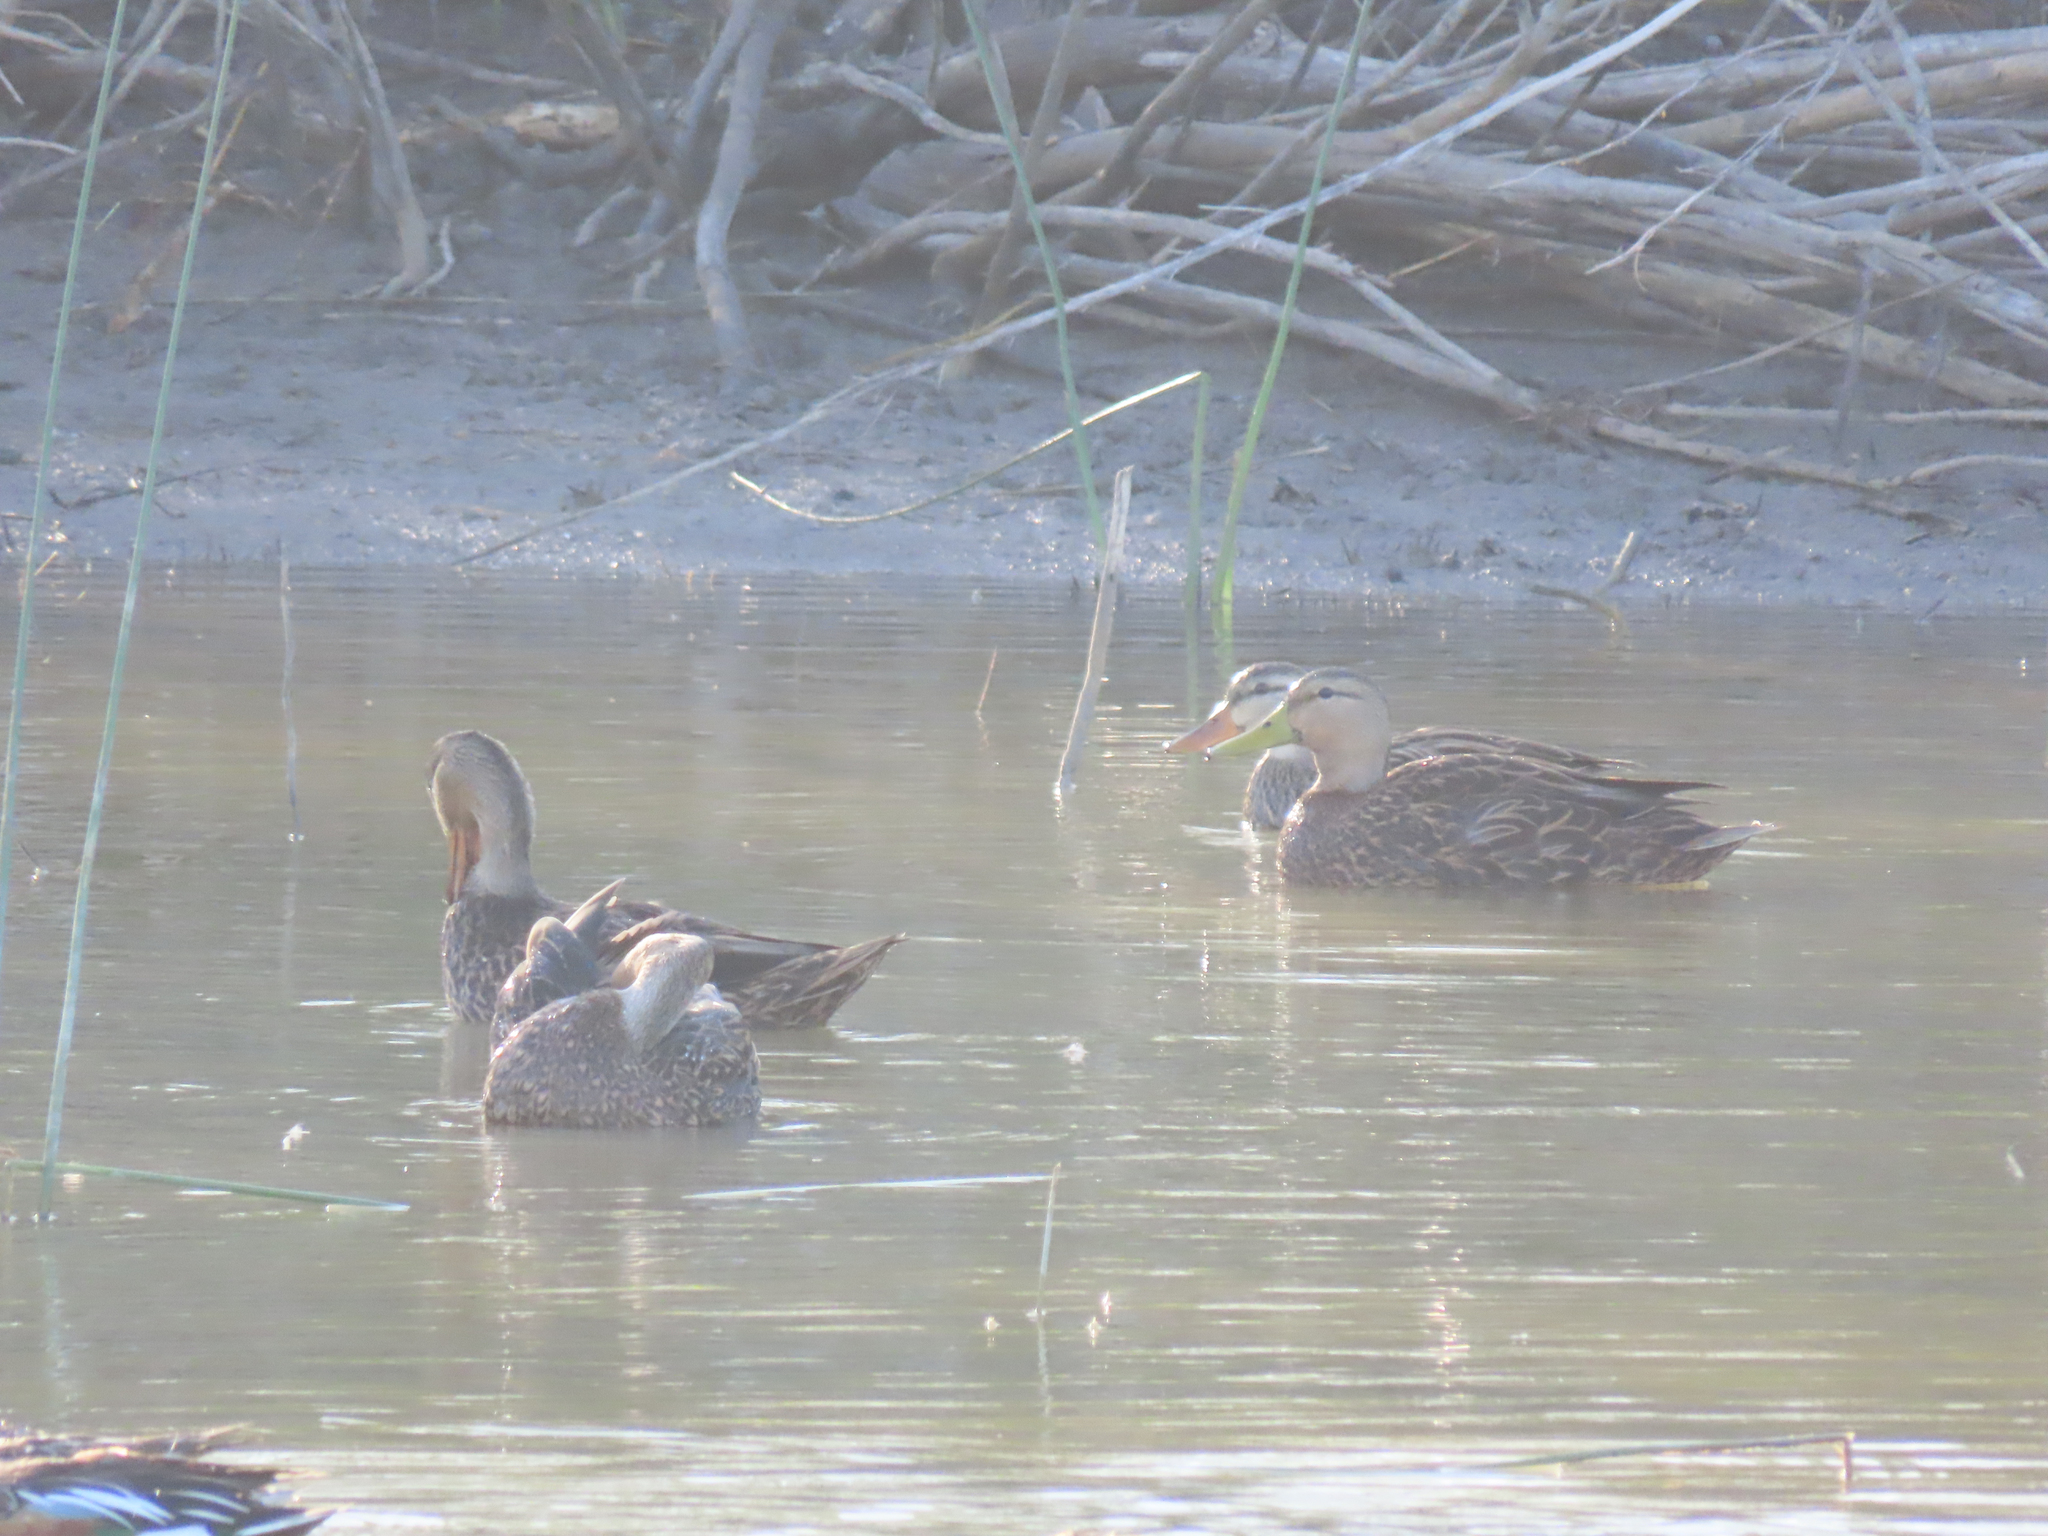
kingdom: Animalia
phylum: Chordata
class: Aves
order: Anseriformes
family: Anatidae
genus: Anas
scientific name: Anas fulvigula
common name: Mottled duck
